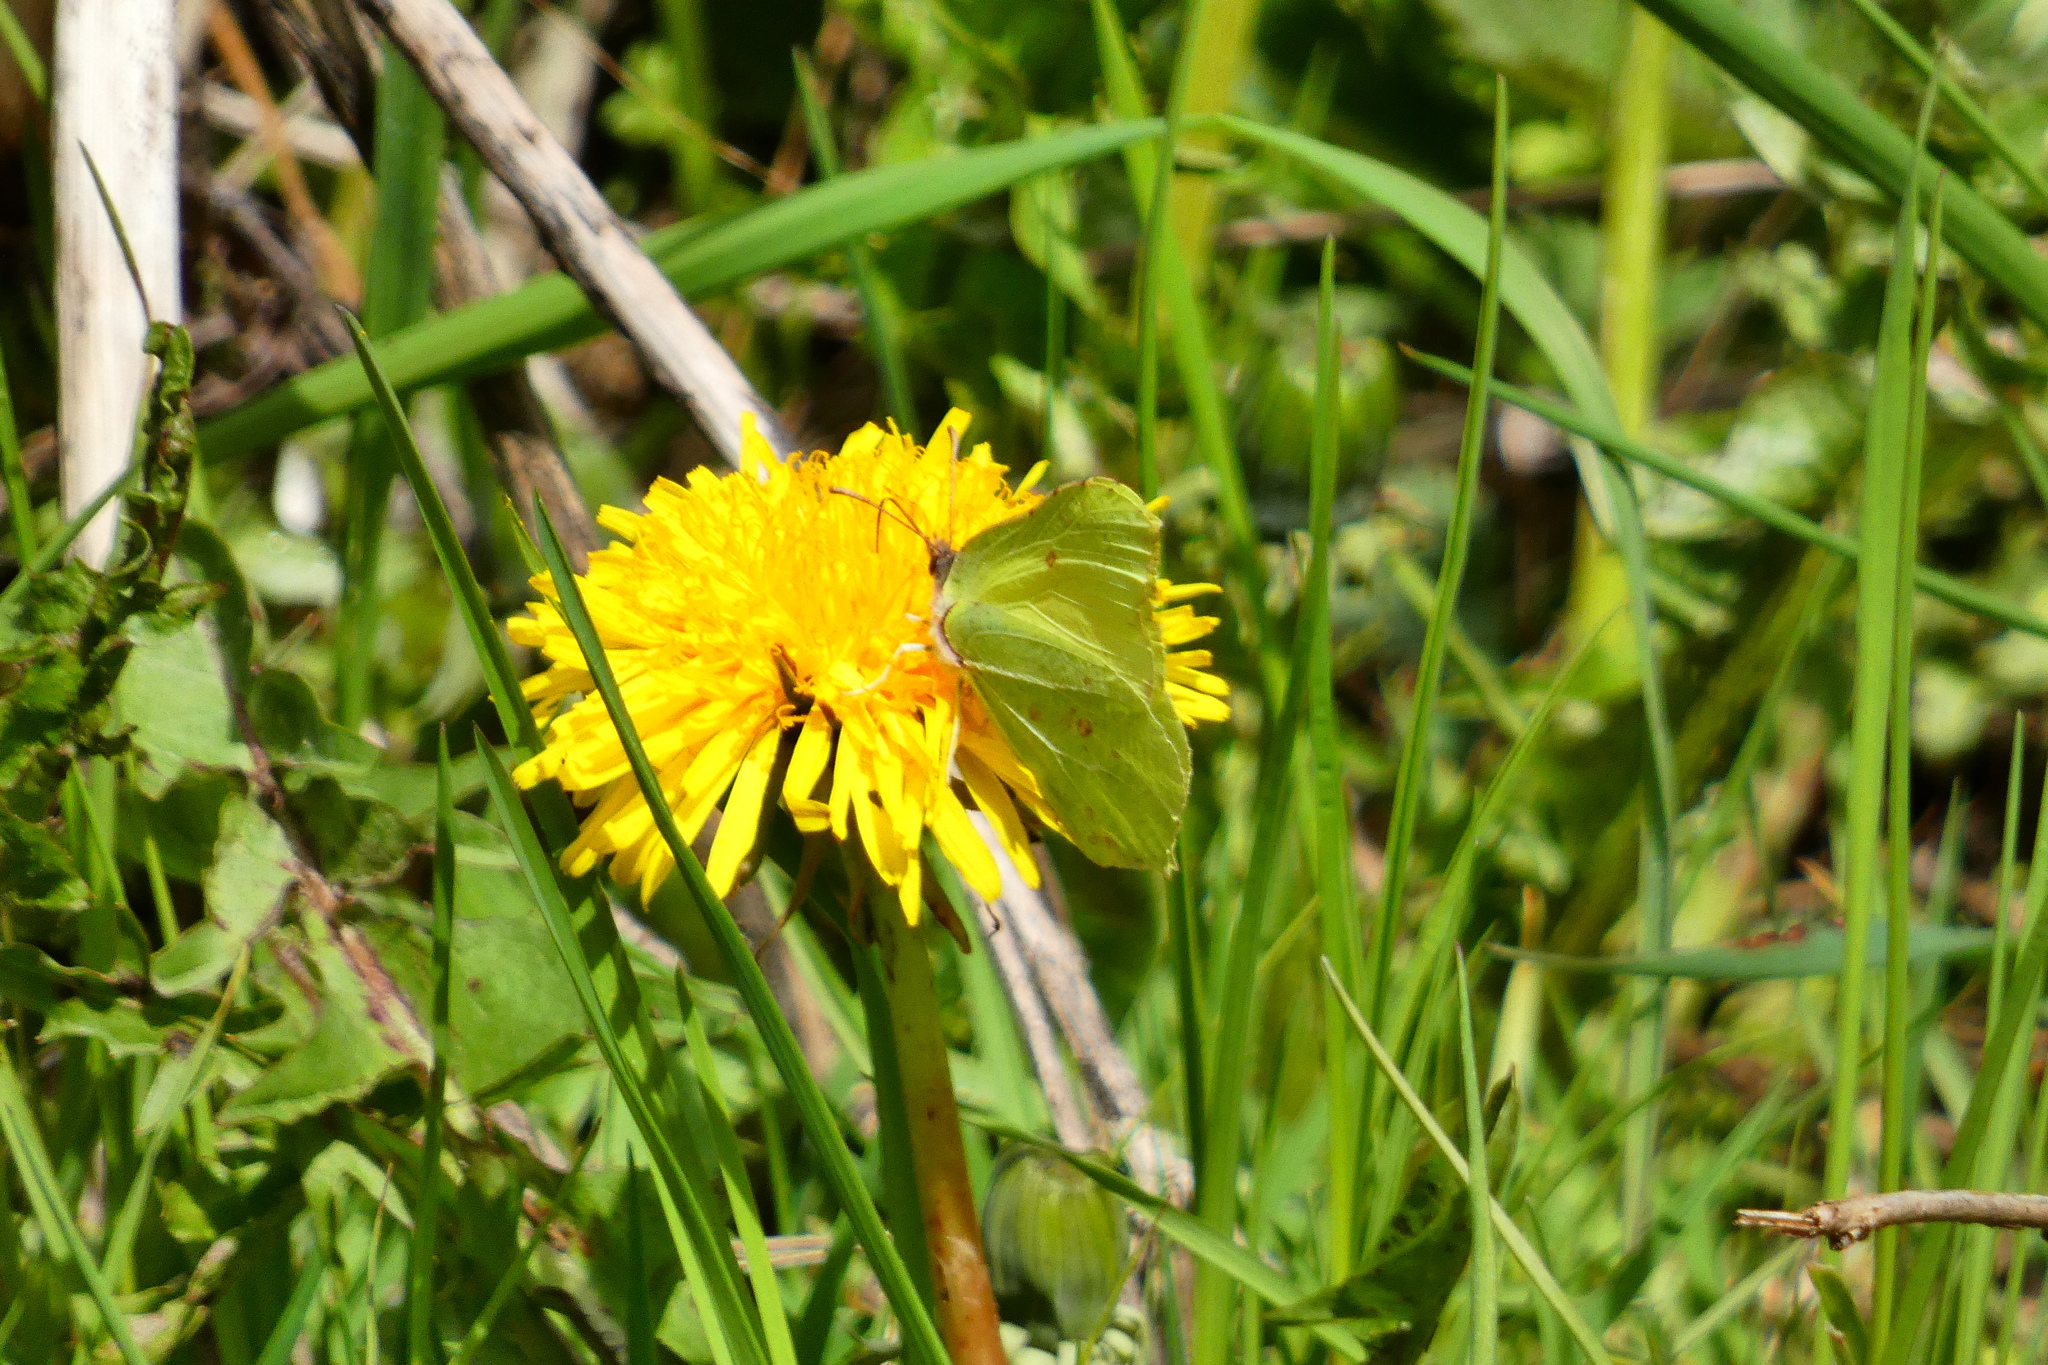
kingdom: Animalia
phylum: Arthropoda
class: Insecta
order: Lepidoptera
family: Pieridae
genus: Gonepteryx
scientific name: Gonepteryx rhamni
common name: Brimstone
